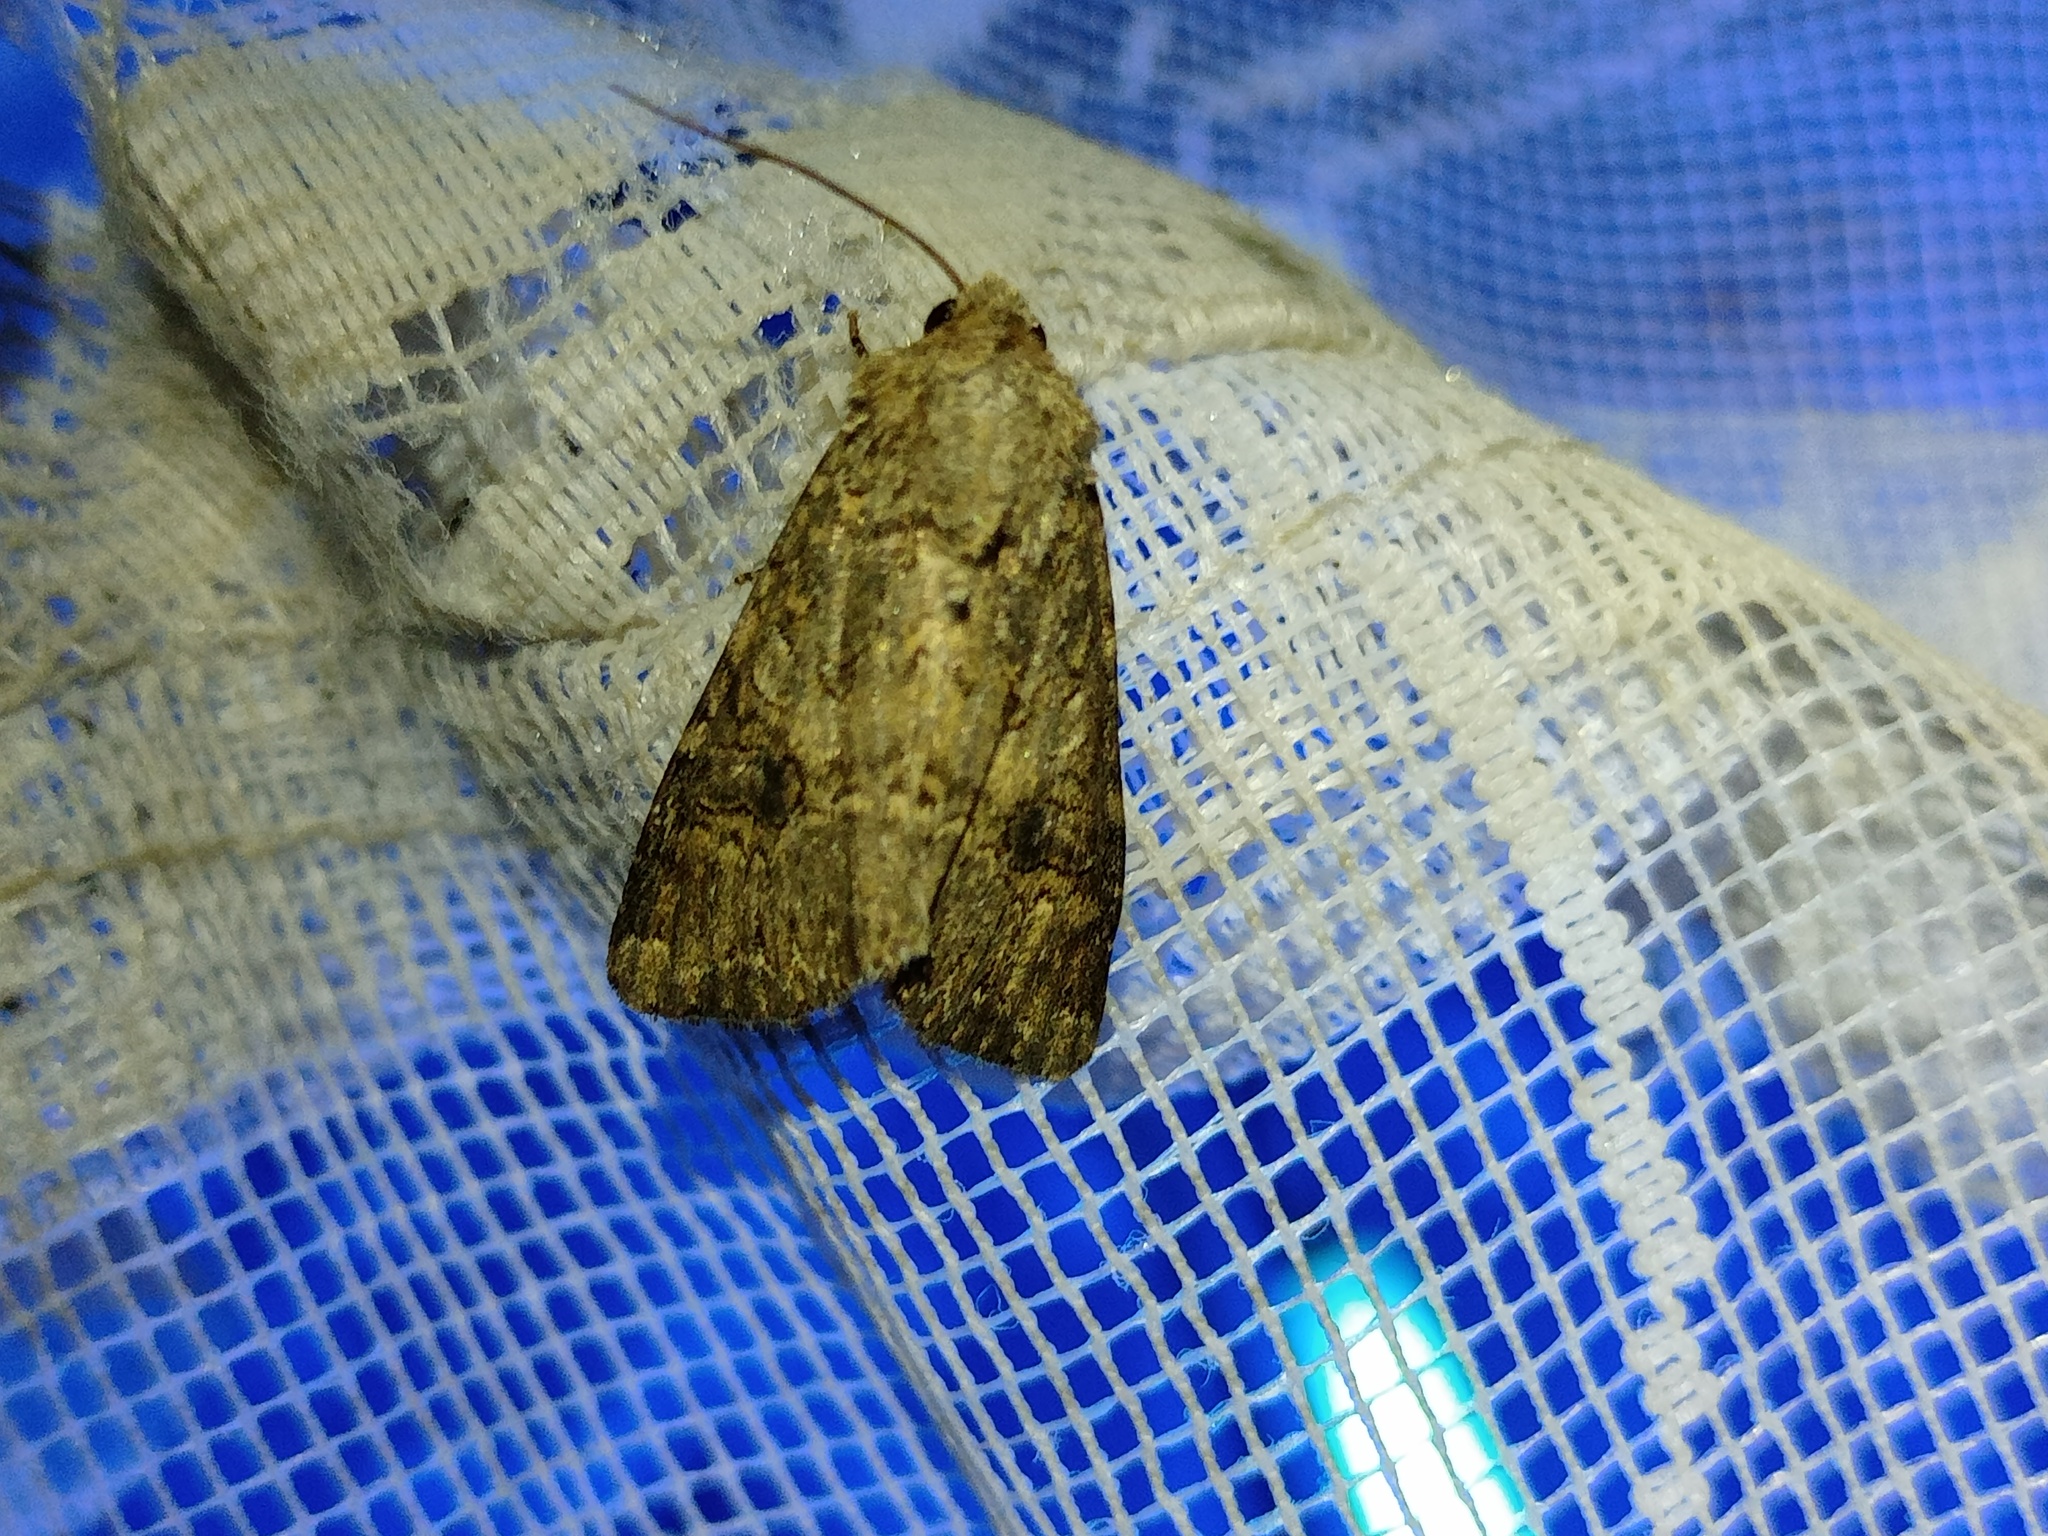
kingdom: Animalia
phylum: Arthropoda
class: Insecta
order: Lepidoptera
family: Noctuidae
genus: Anarta
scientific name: Anarta trifolii
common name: Clover cutworm moth
